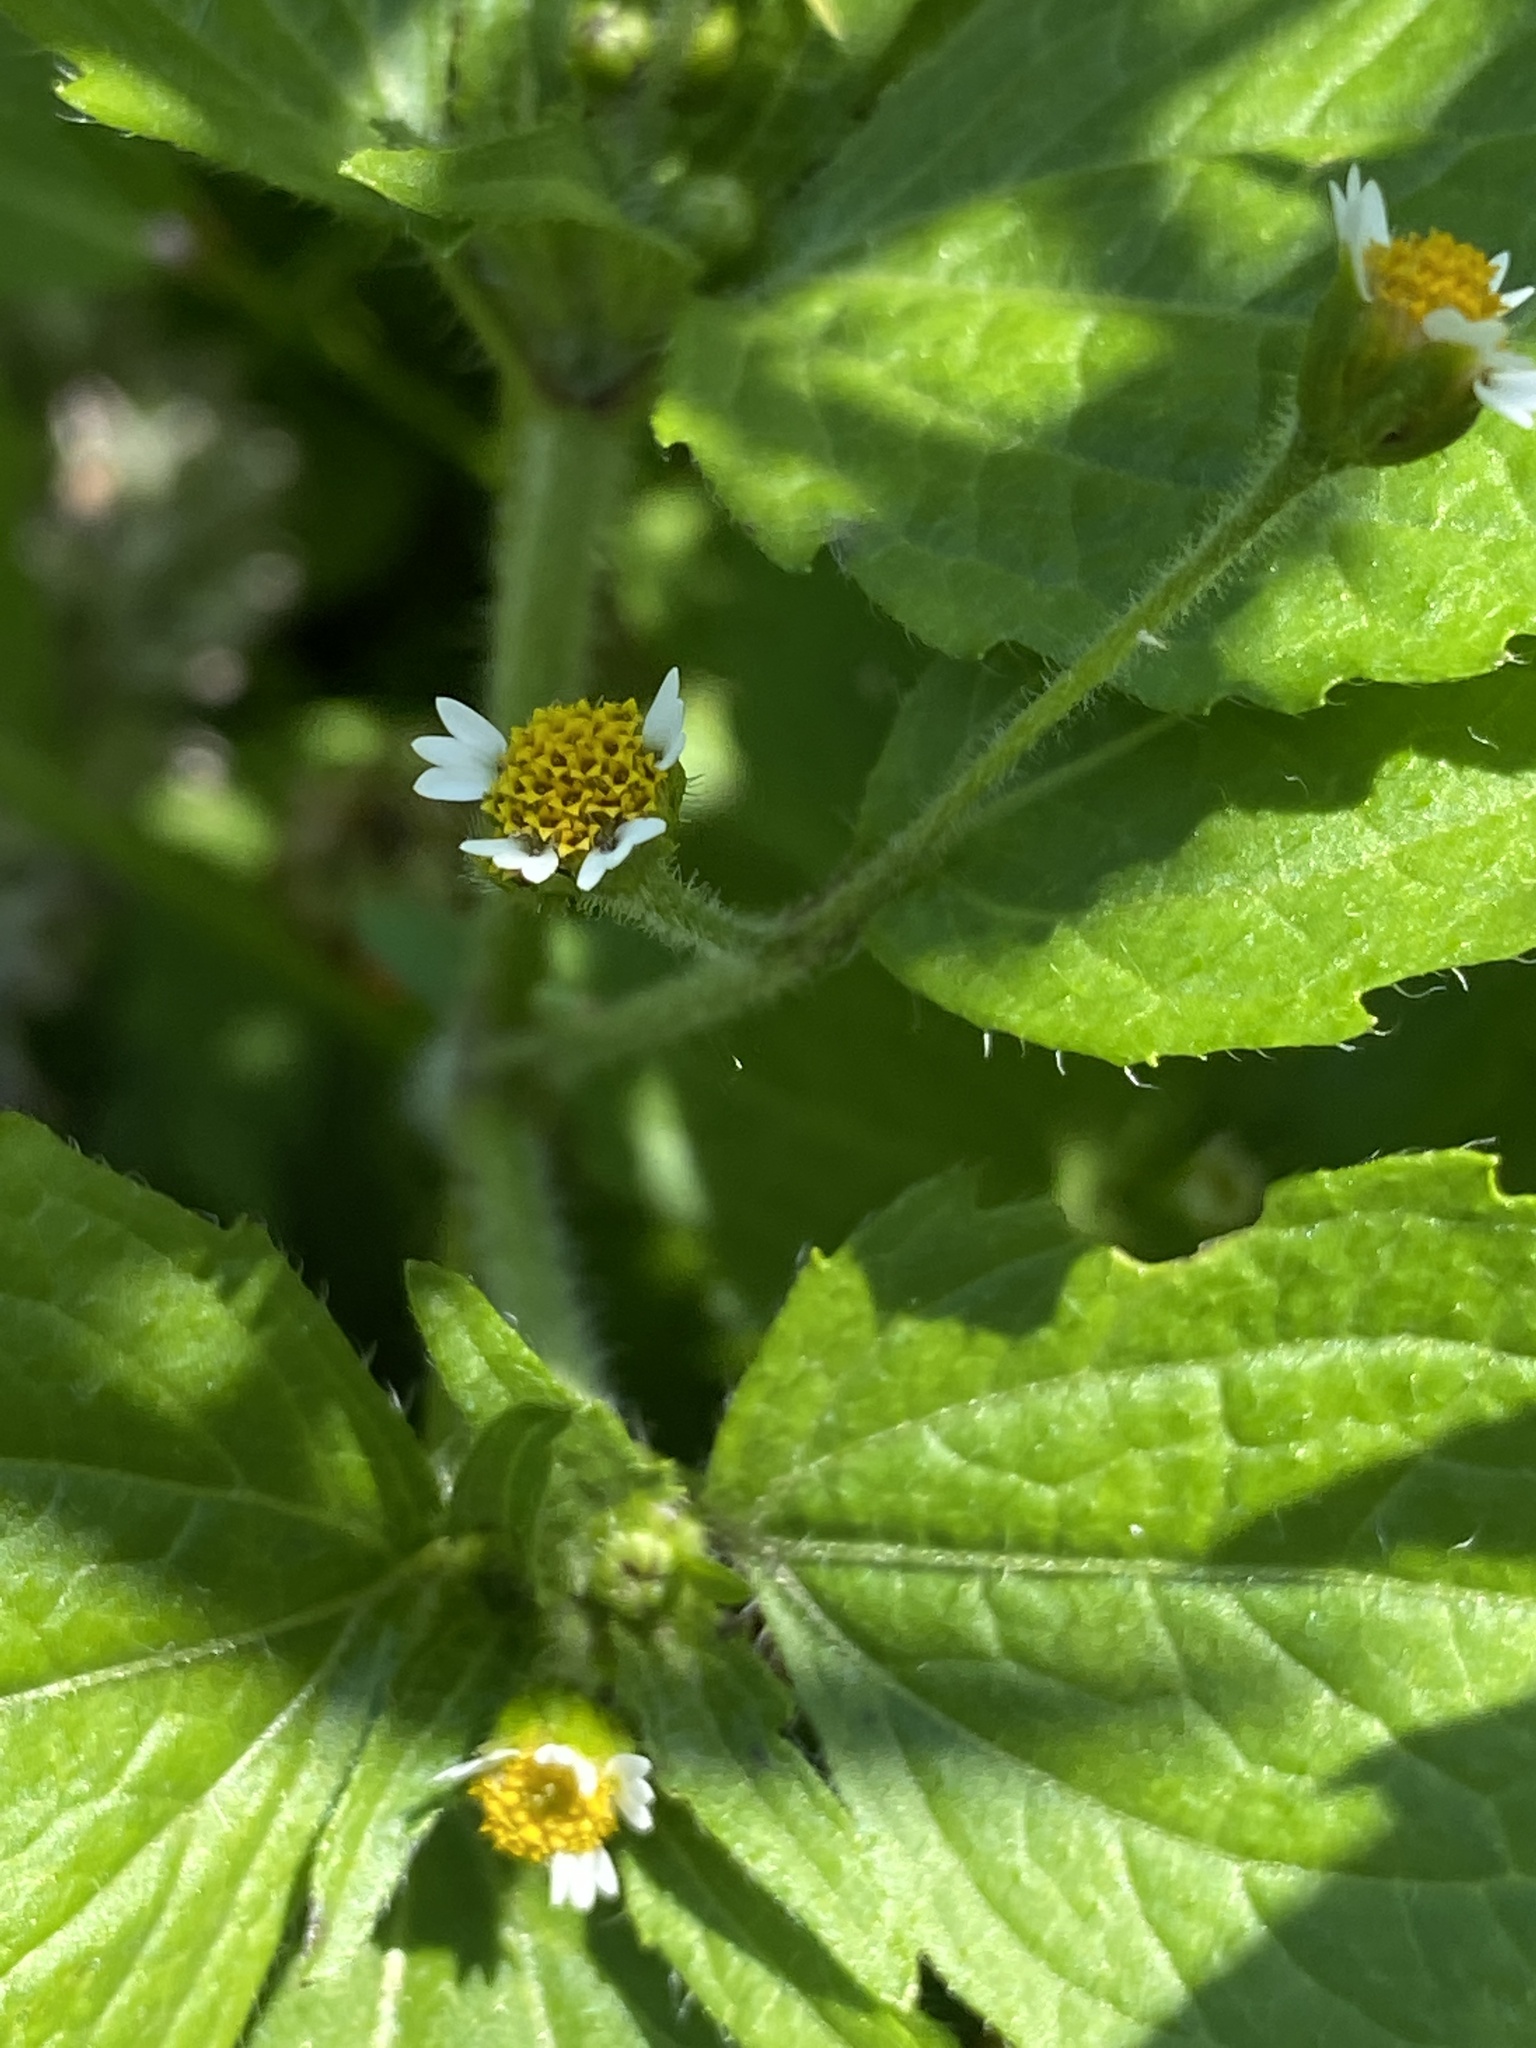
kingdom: Plantae
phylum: Tracheophyta
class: Magnoliopsida
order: Asterales
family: Asteraceae
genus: Galinsoga
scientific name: Galinsoga quadriradiata
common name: Shaggy soldier
